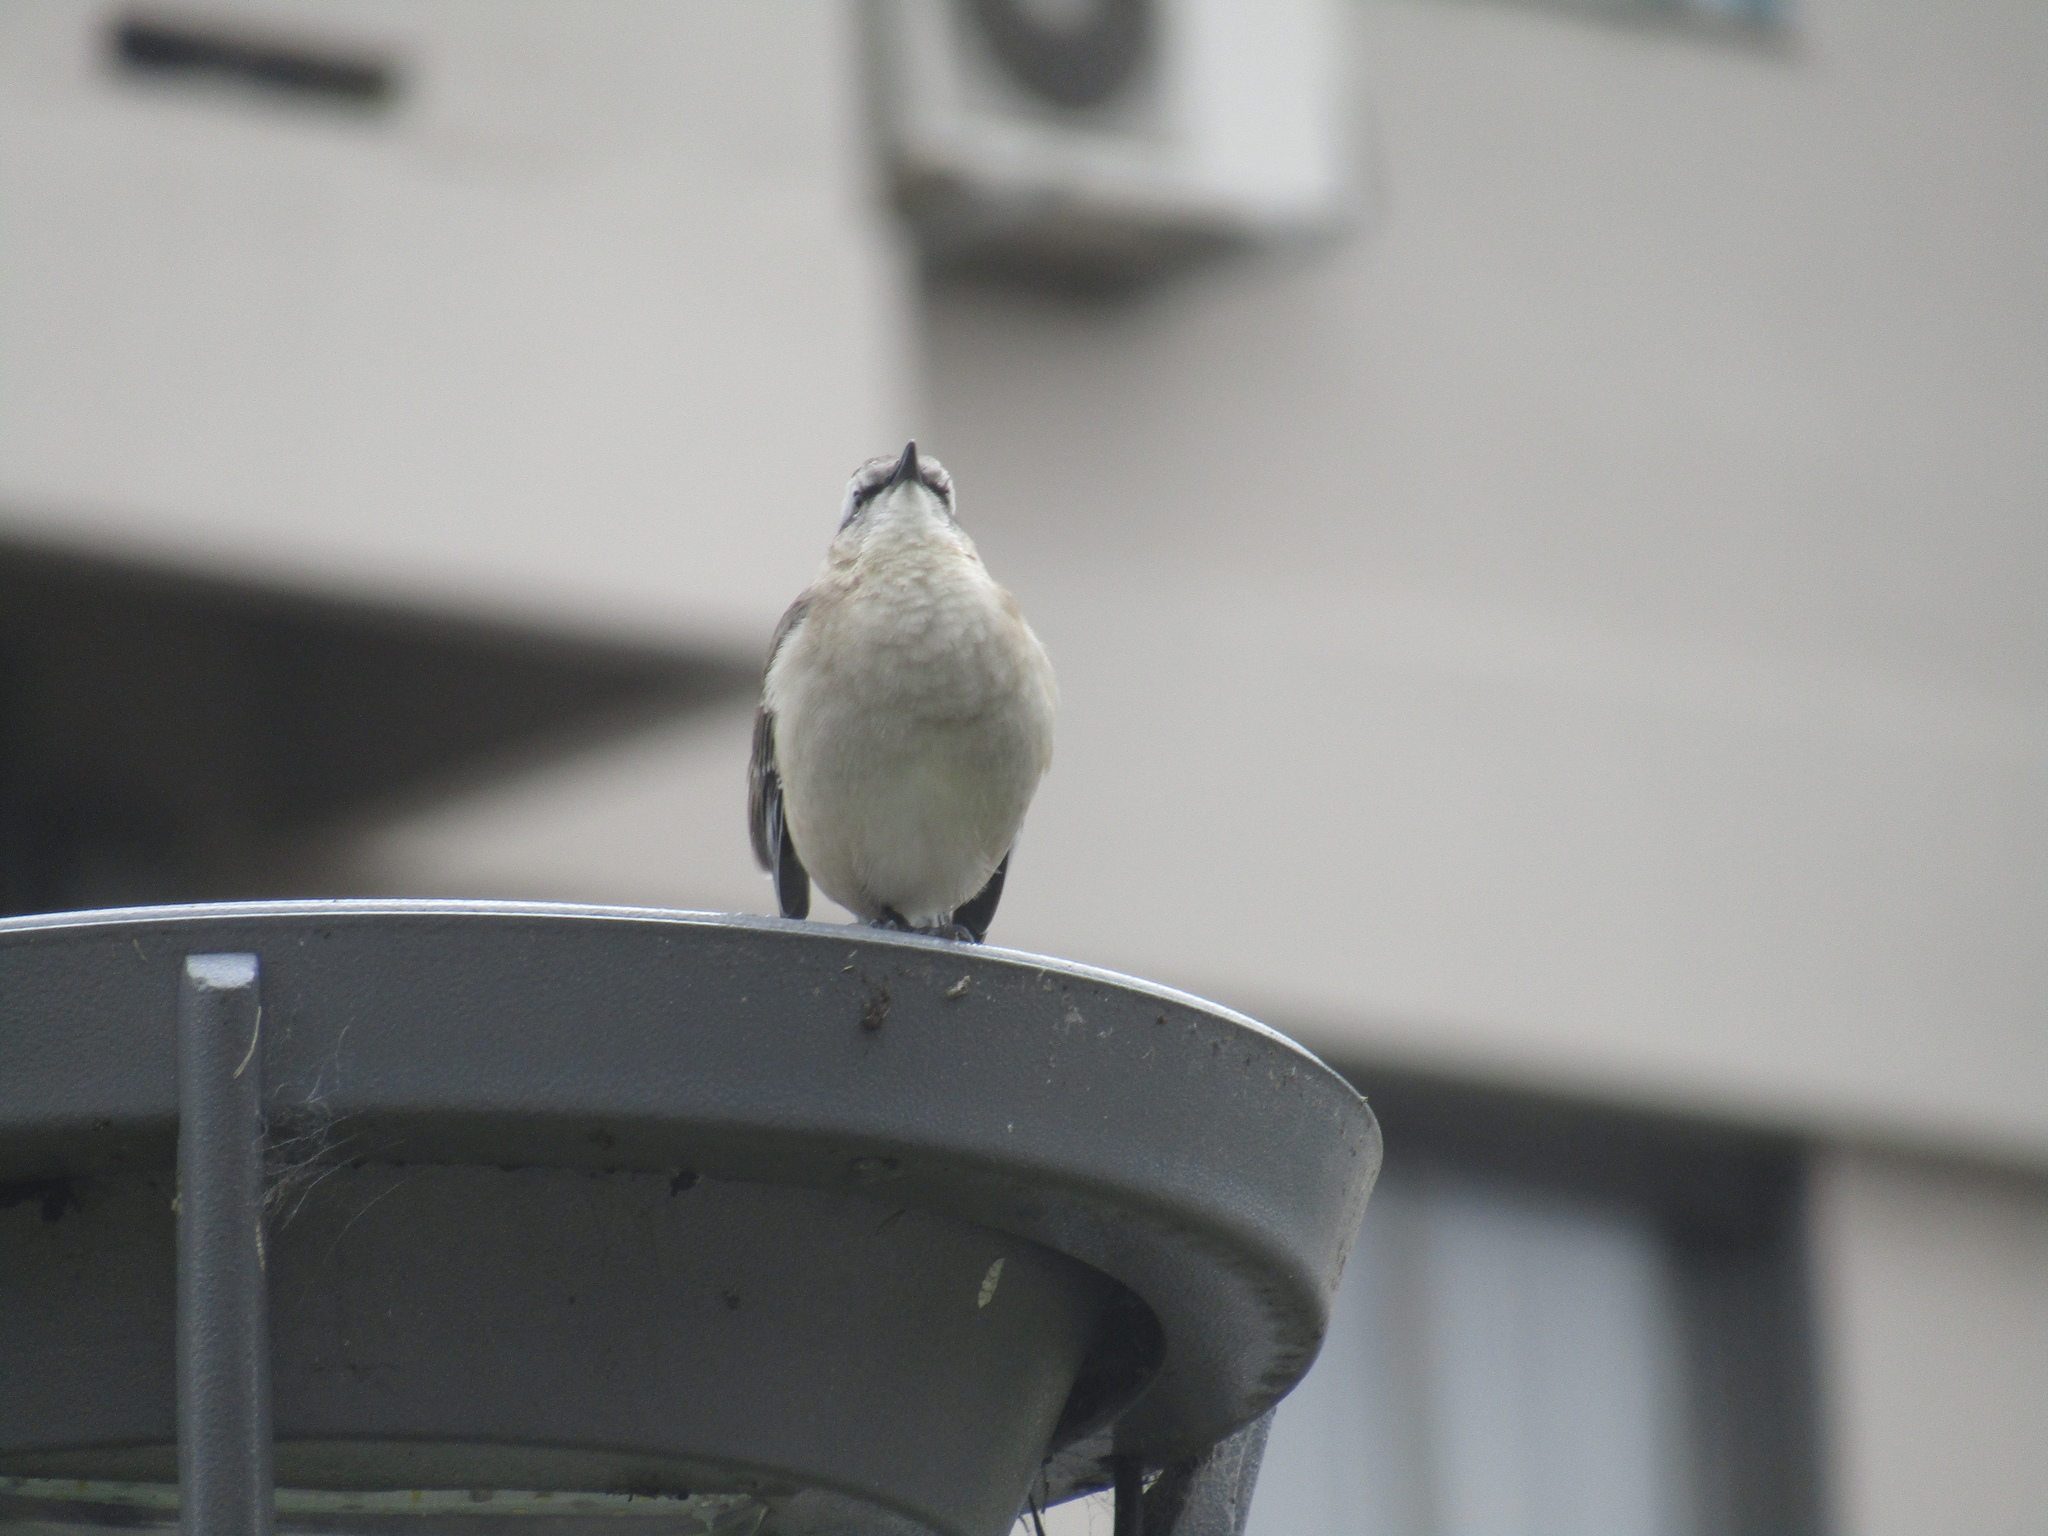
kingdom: Animalia
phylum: Chordata
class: Aves
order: Passeriformes
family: Mimidae
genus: Mimus
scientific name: Mimus saturninus
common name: Chalk-browed mockingbird
